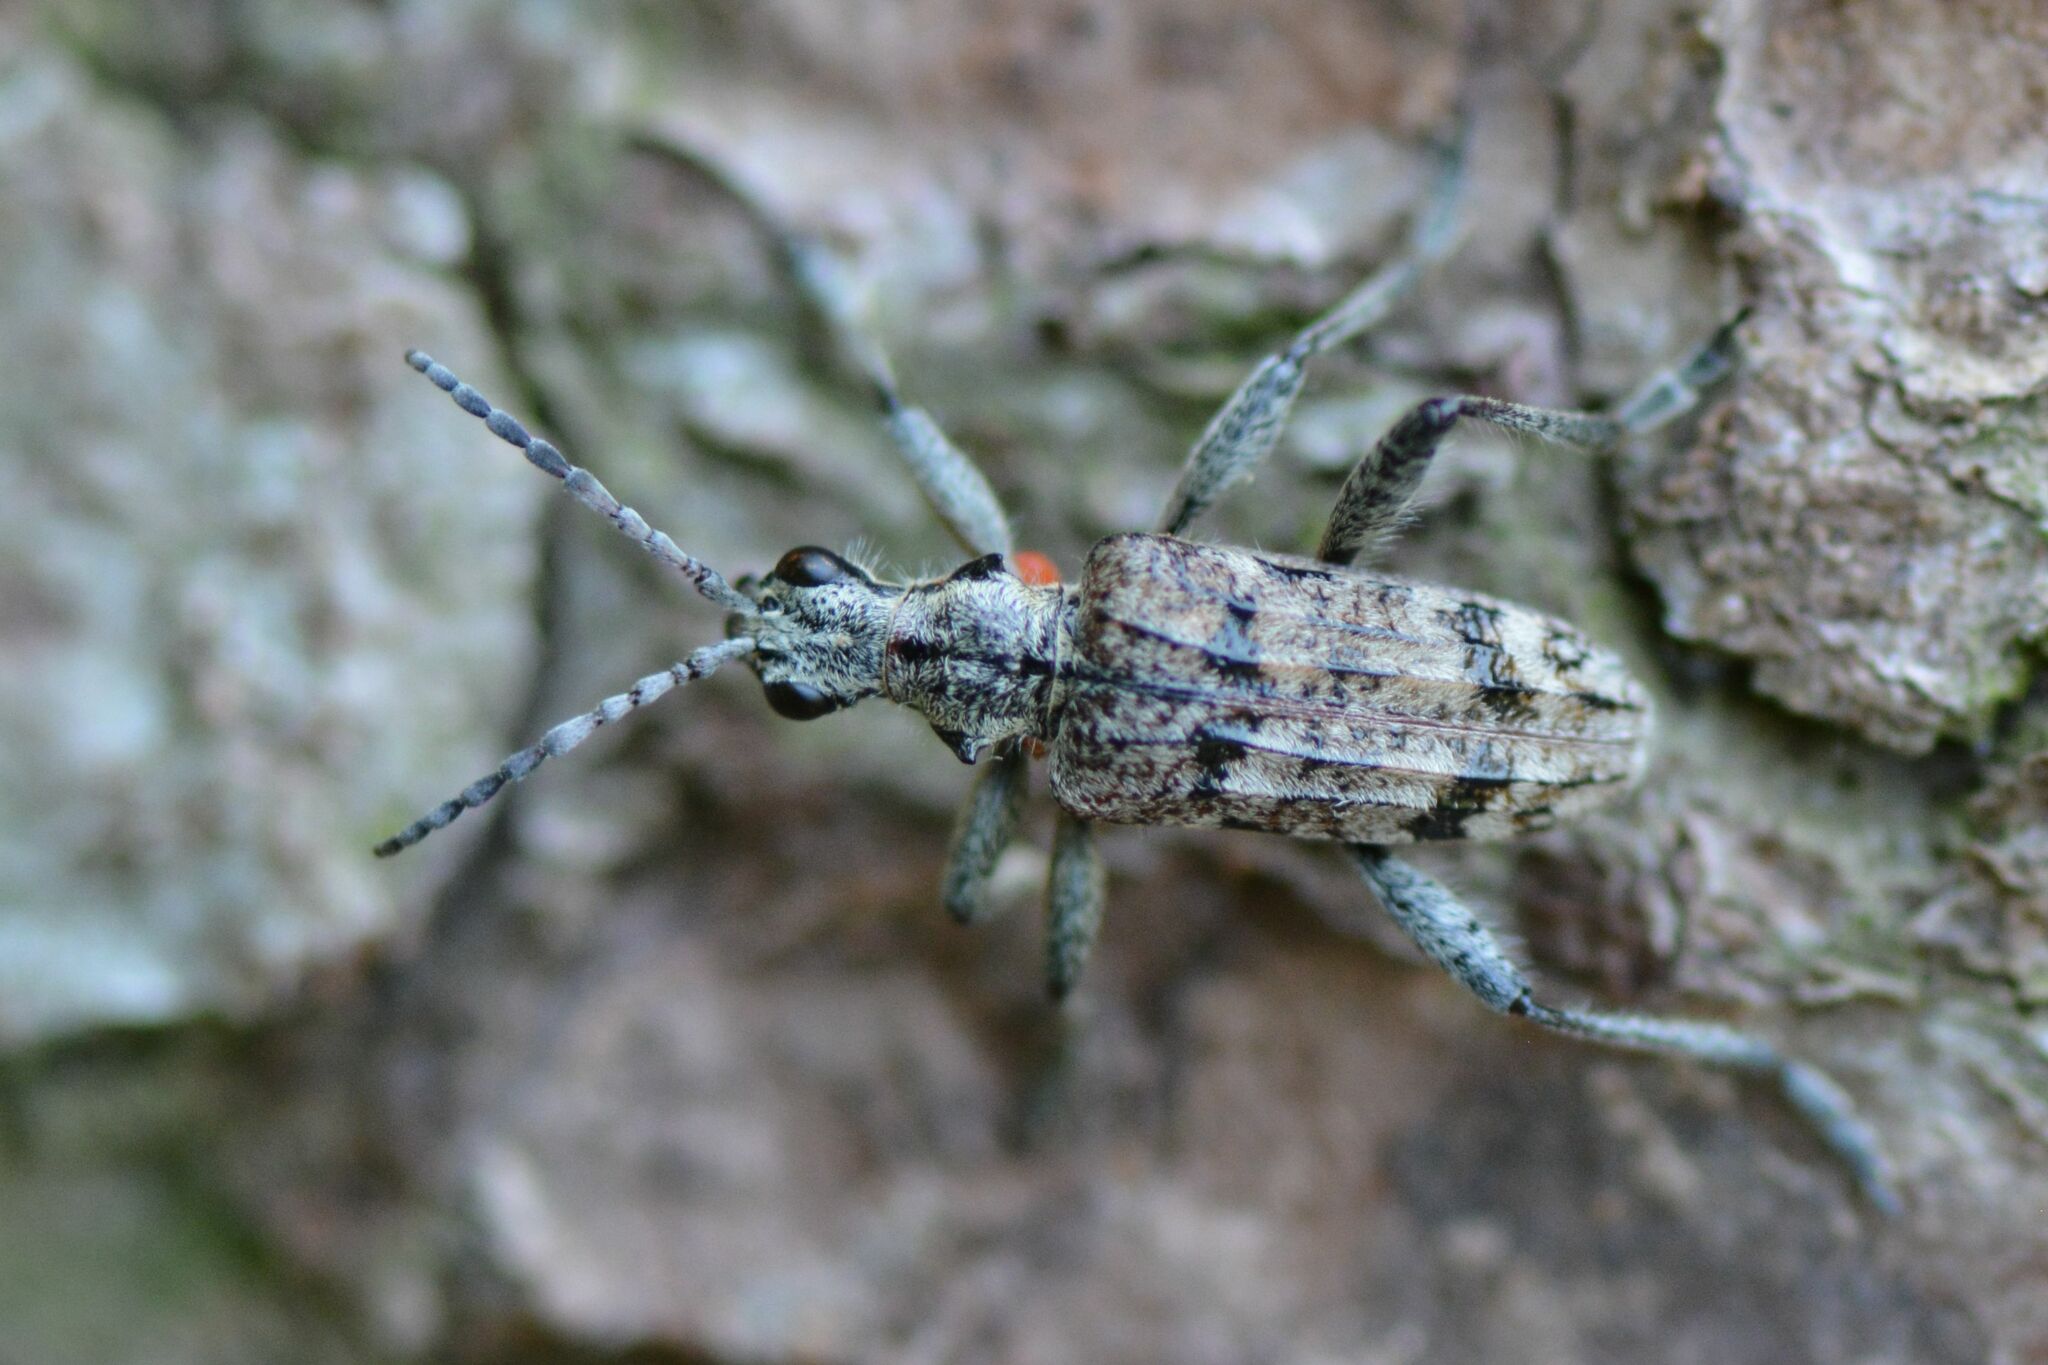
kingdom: Animalia
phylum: Arthropoda
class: Insecta
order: Coleoptera
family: Cerambycidae
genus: Rhagium
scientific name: Rhagium inquisitor
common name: Ribbed pine borer
